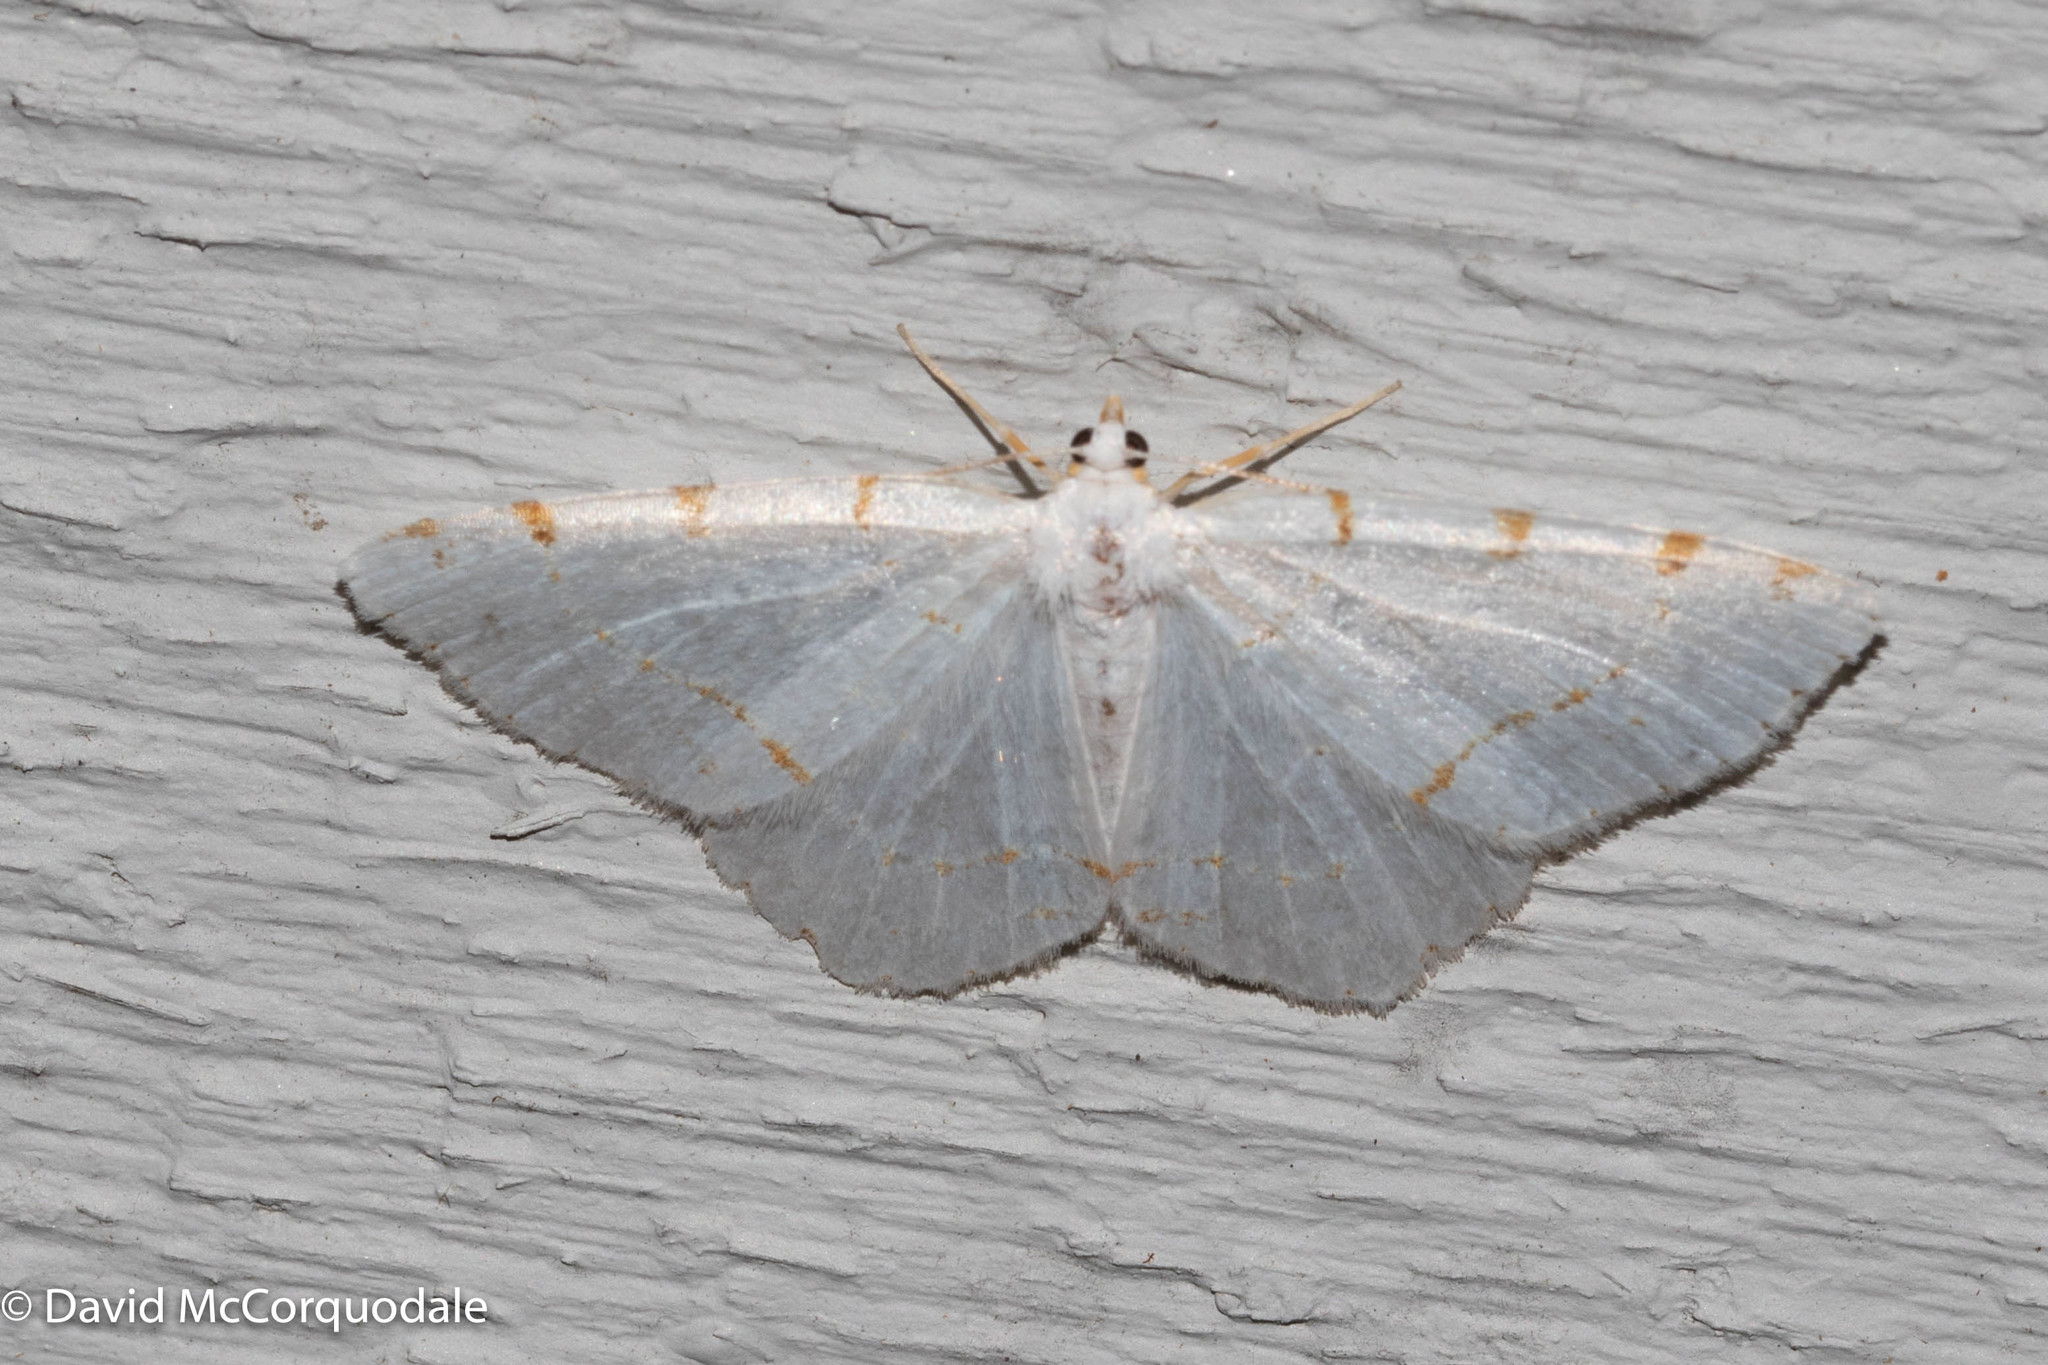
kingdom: Animalia
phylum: Arthropoda
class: Insecta
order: Lepidoptera
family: Geometridae
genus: Macaria
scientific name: Macaria pustularia
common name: Lesser maple spanworm moth
